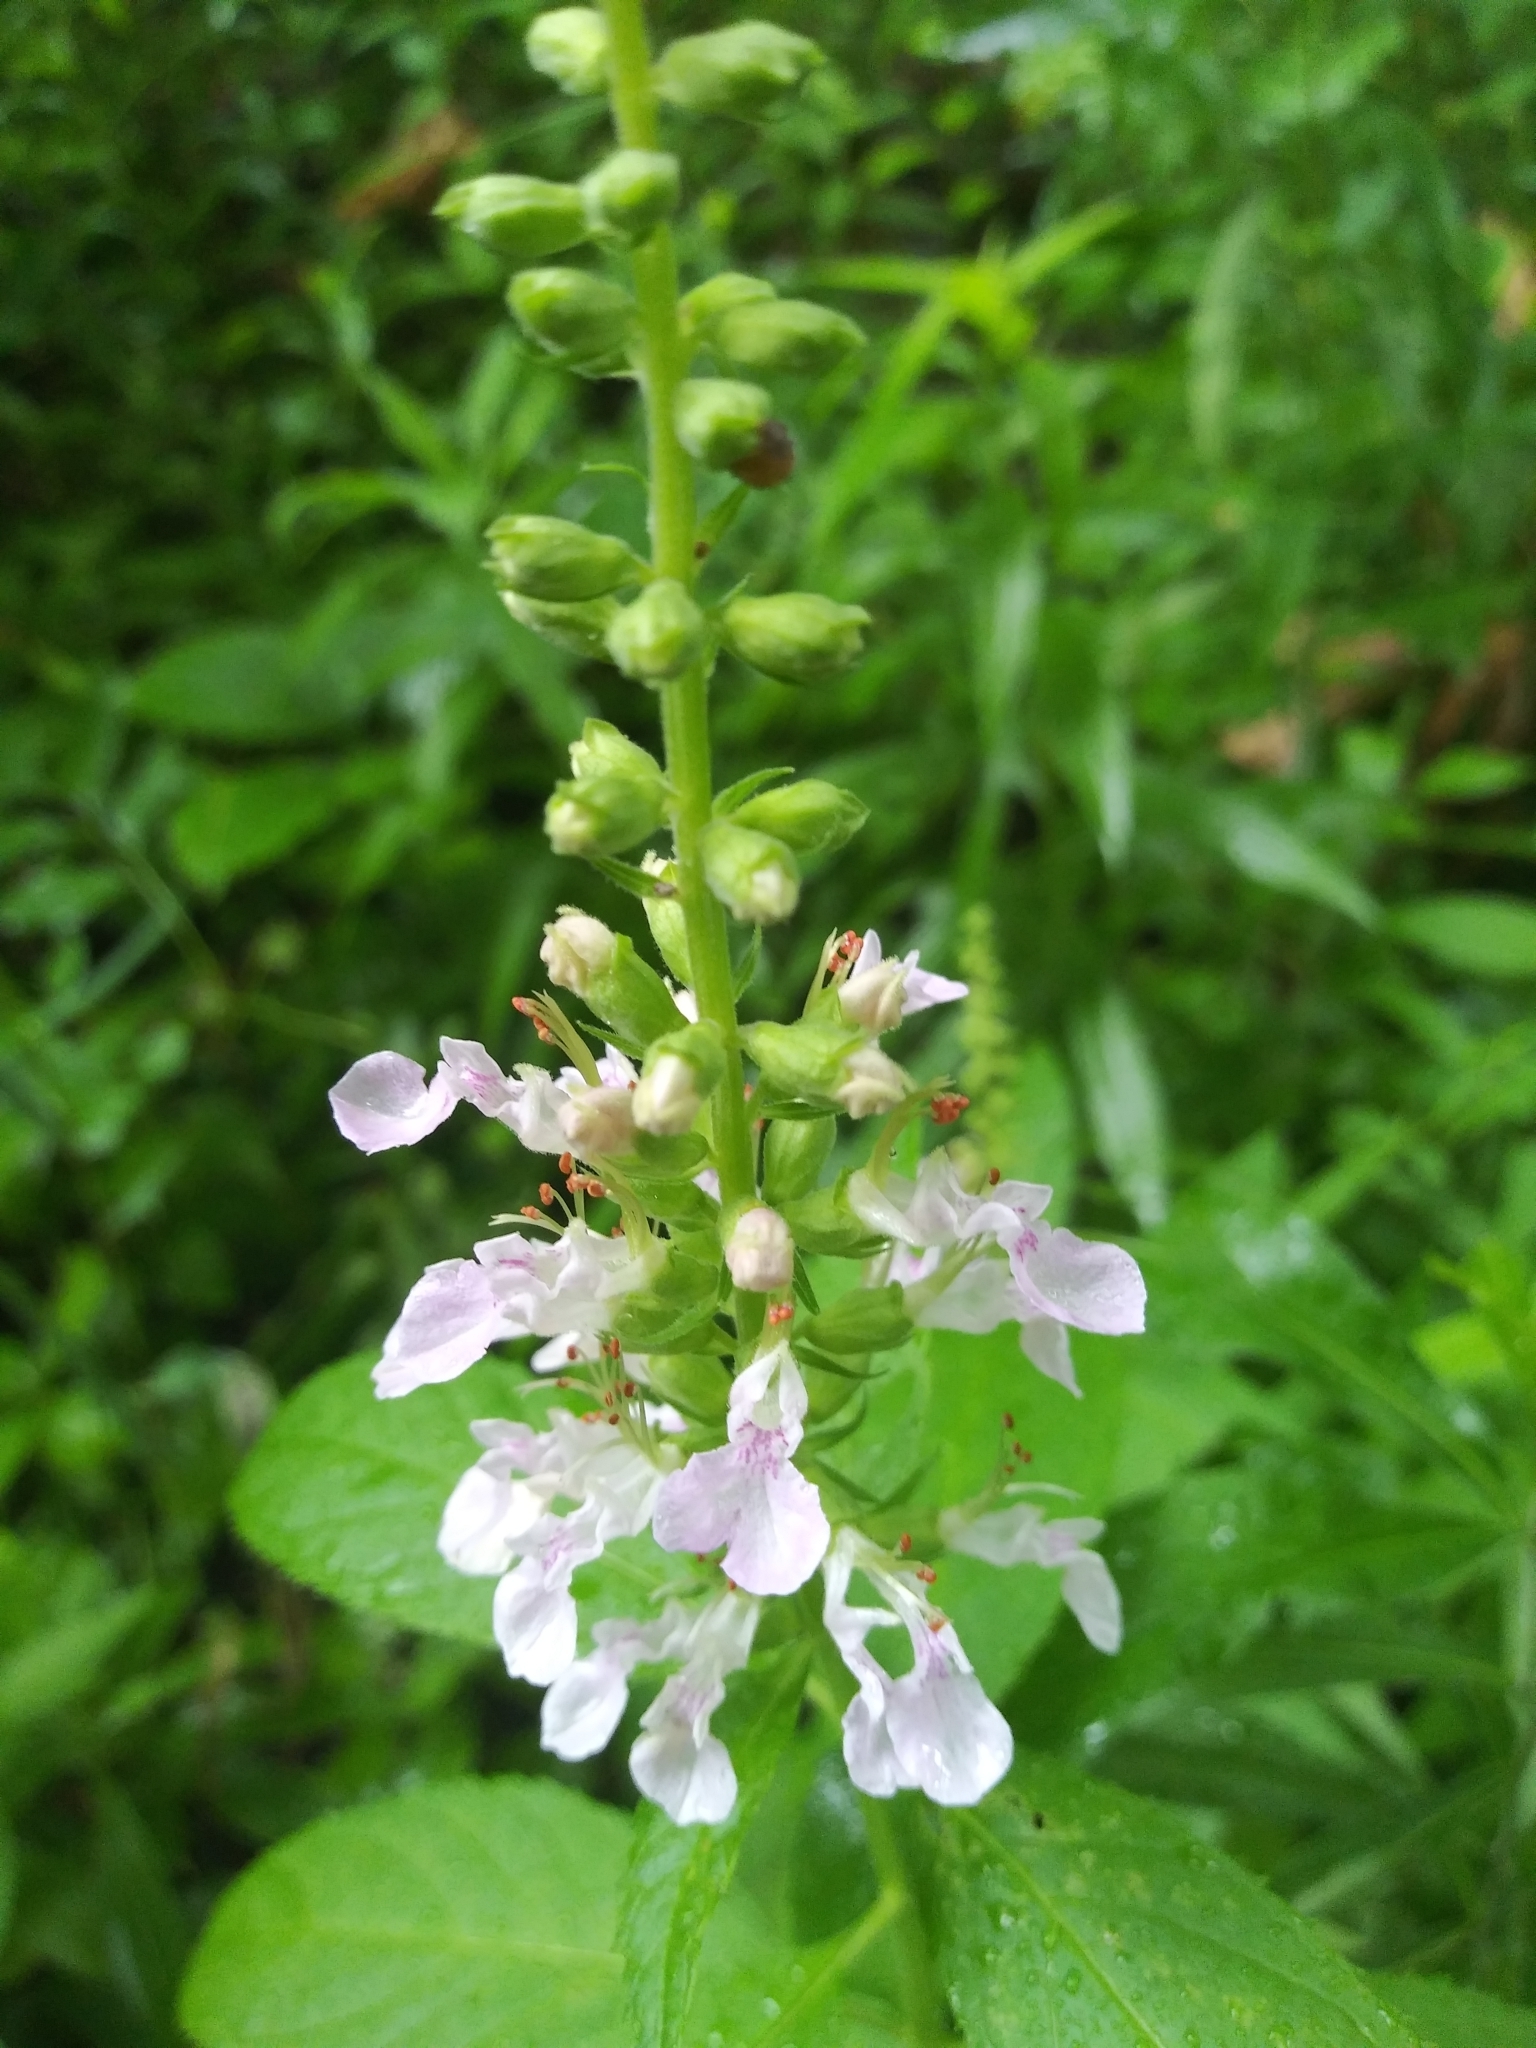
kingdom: Plantae
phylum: Tracheophyta
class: Magnoliopsida
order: Lamiales
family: Lamiaceae
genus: Teucrium
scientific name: Teucrium canadense
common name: American germander
